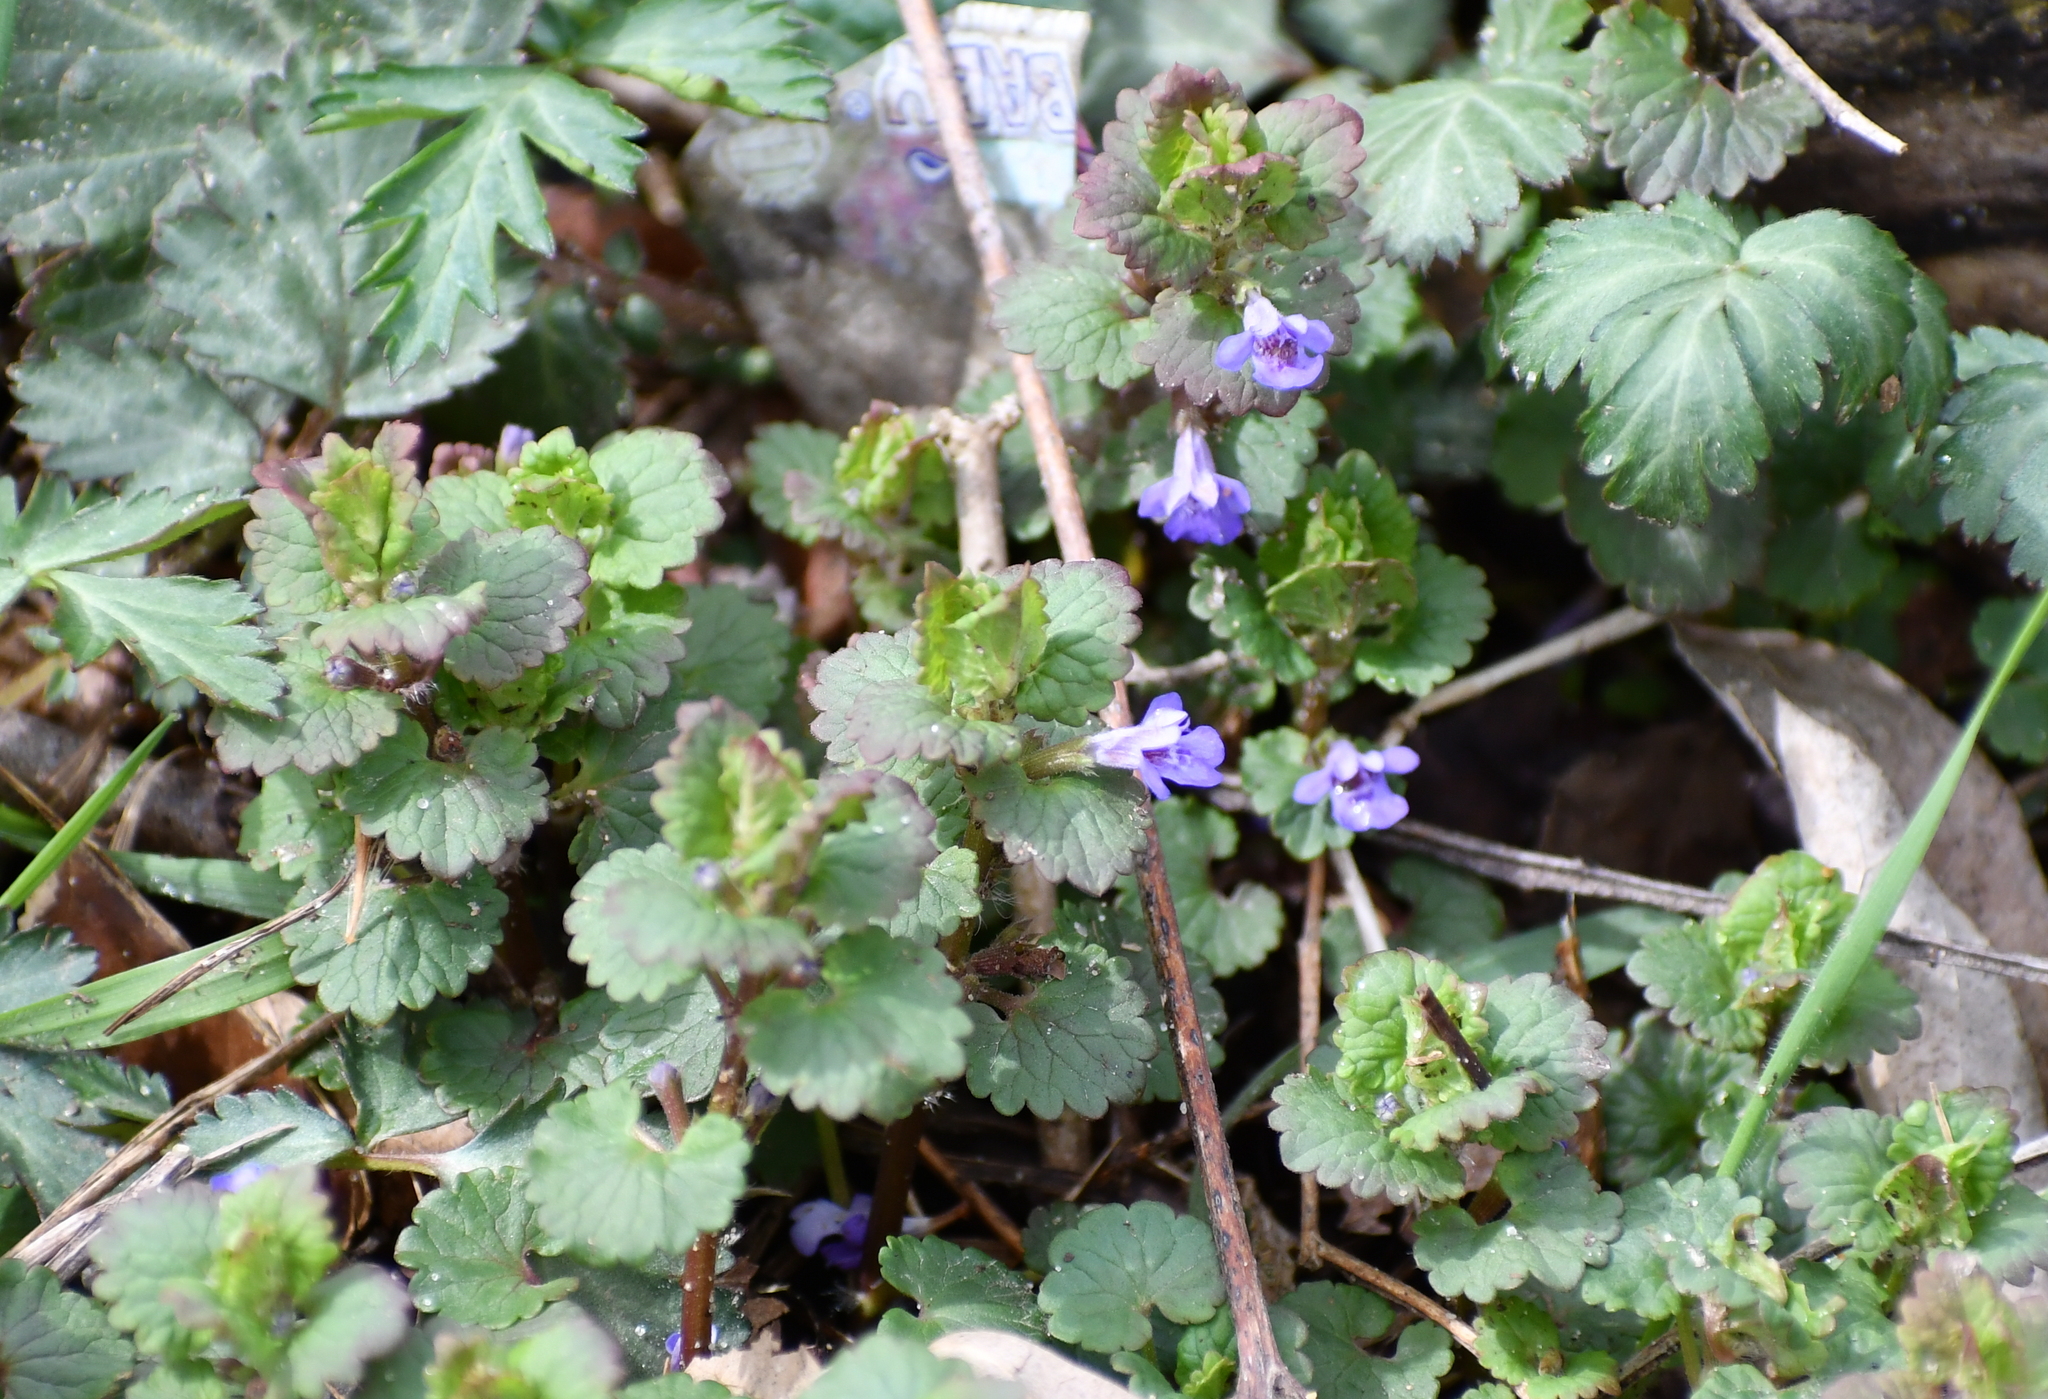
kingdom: Plantae
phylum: Tracheophyta
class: Magnoliopsida
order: Lamiales
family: Lamiaceae
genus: Glechoma
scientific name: Glechoma hederacea
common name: Ground ivy
